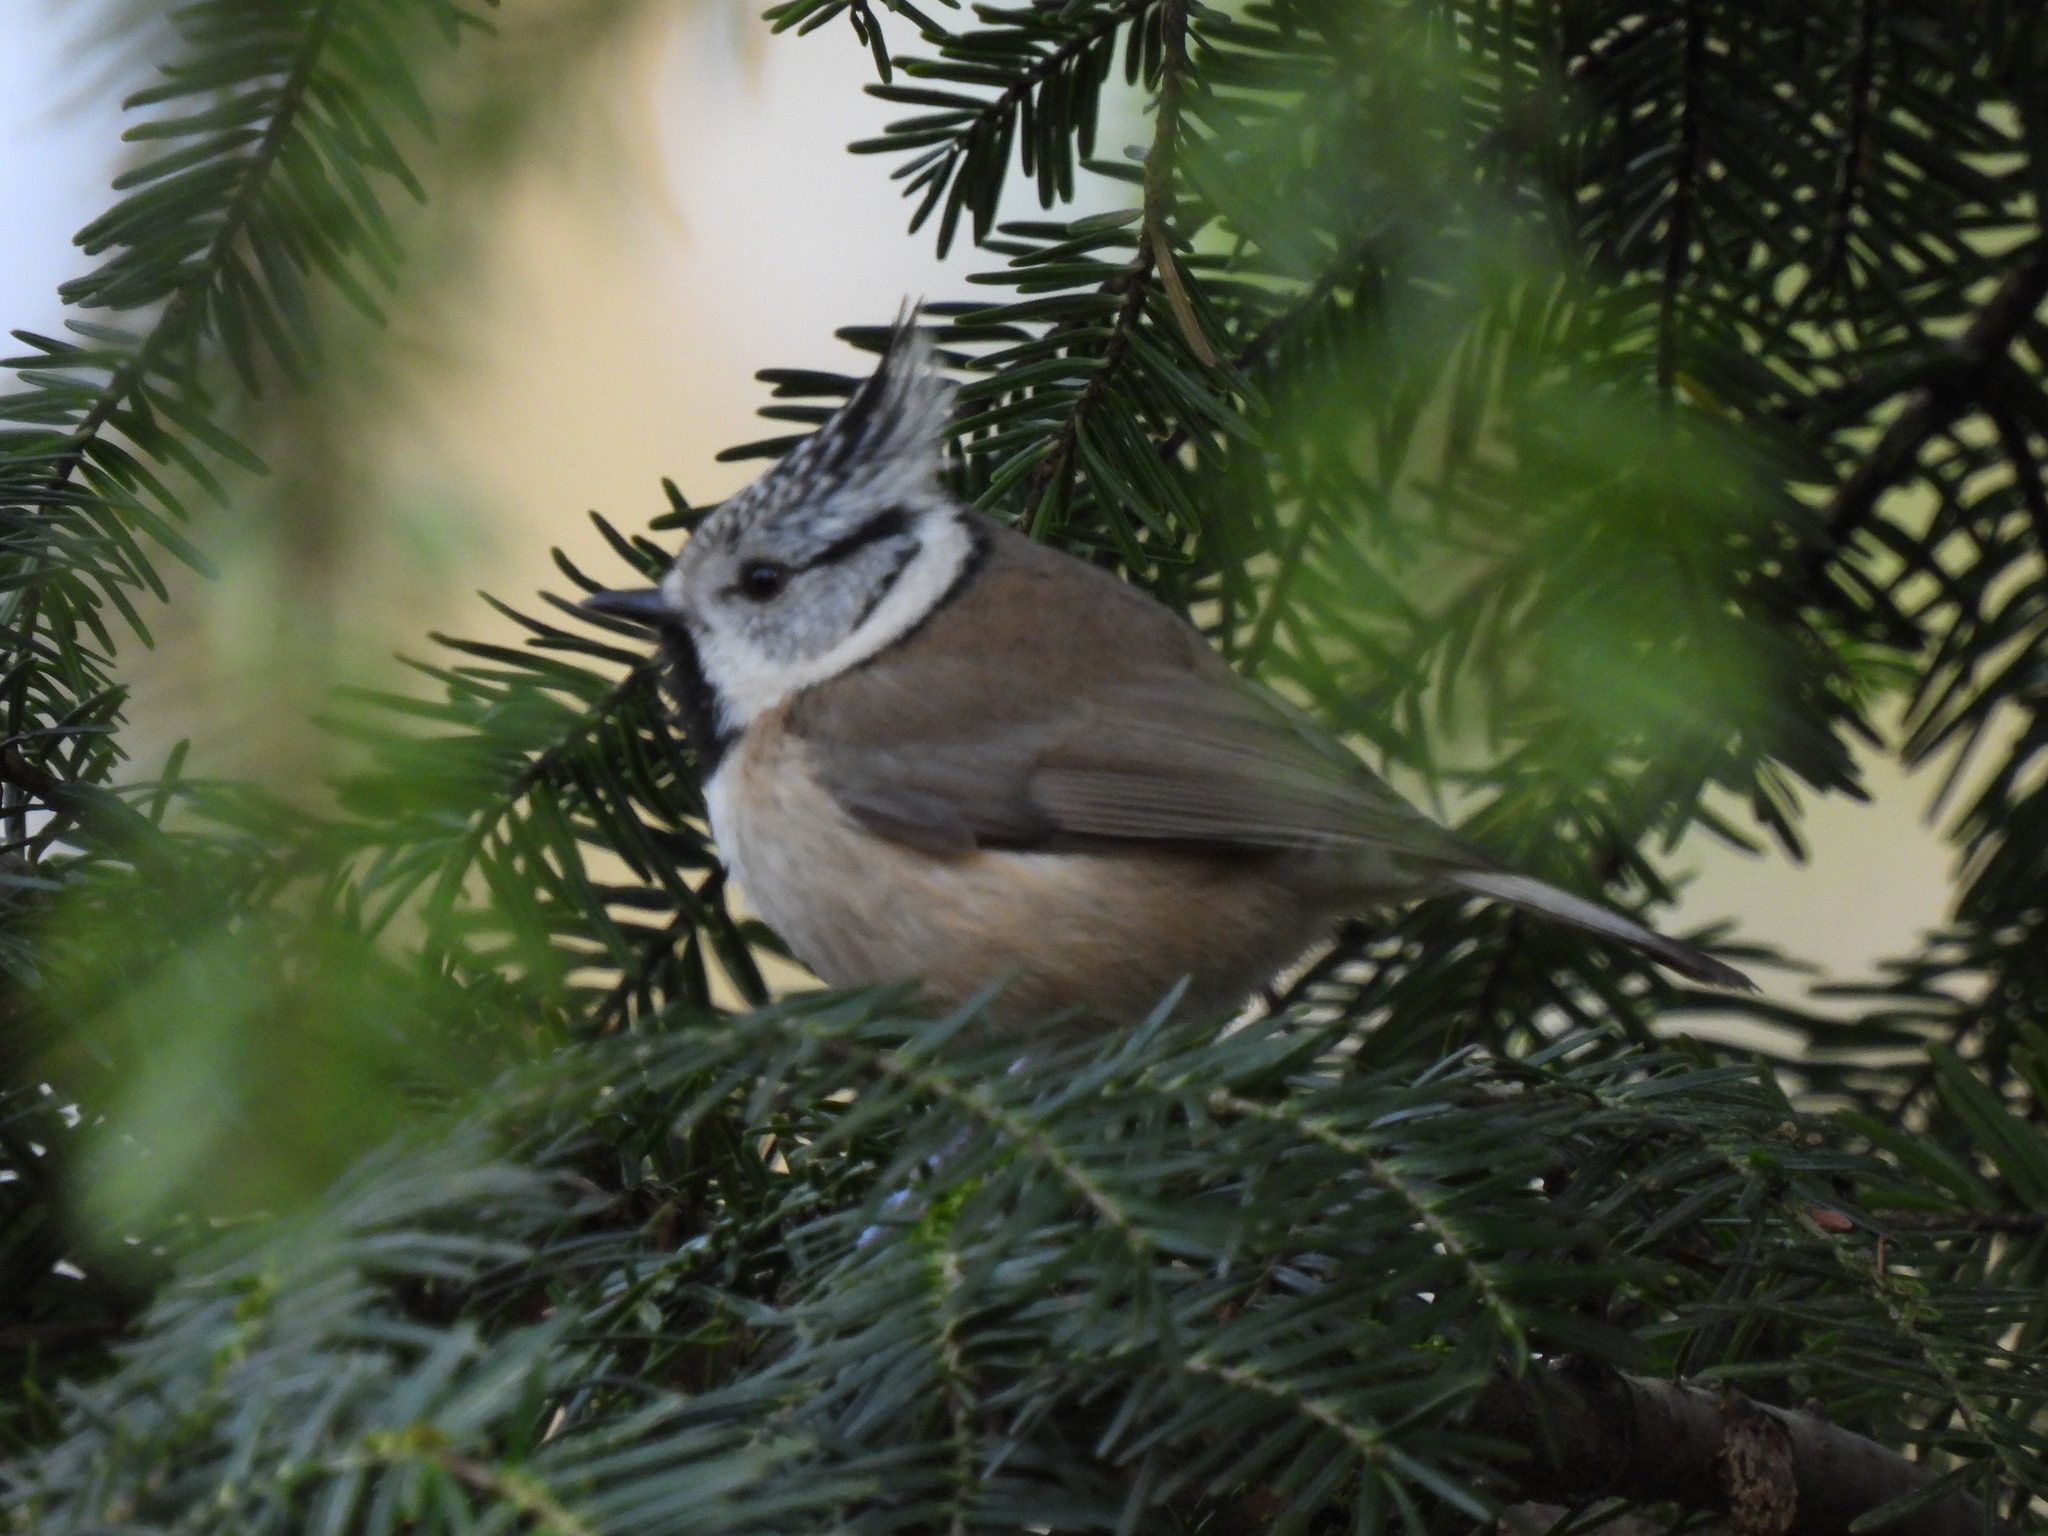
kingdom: Animalia
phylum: Chordata
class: Aves
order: Passeriformes
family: Paridae
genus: Lophophanes
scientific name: Lophophanes cristatus
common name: European crested tit
